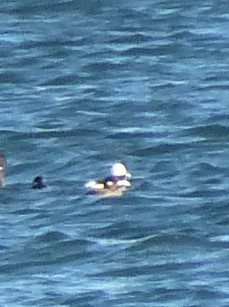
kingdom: Animalia
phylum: Chordata
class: Aves
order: Anseriformes
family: Anatidae
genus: Bucephala
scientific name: Bucephala albeola
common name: Bufflehead
